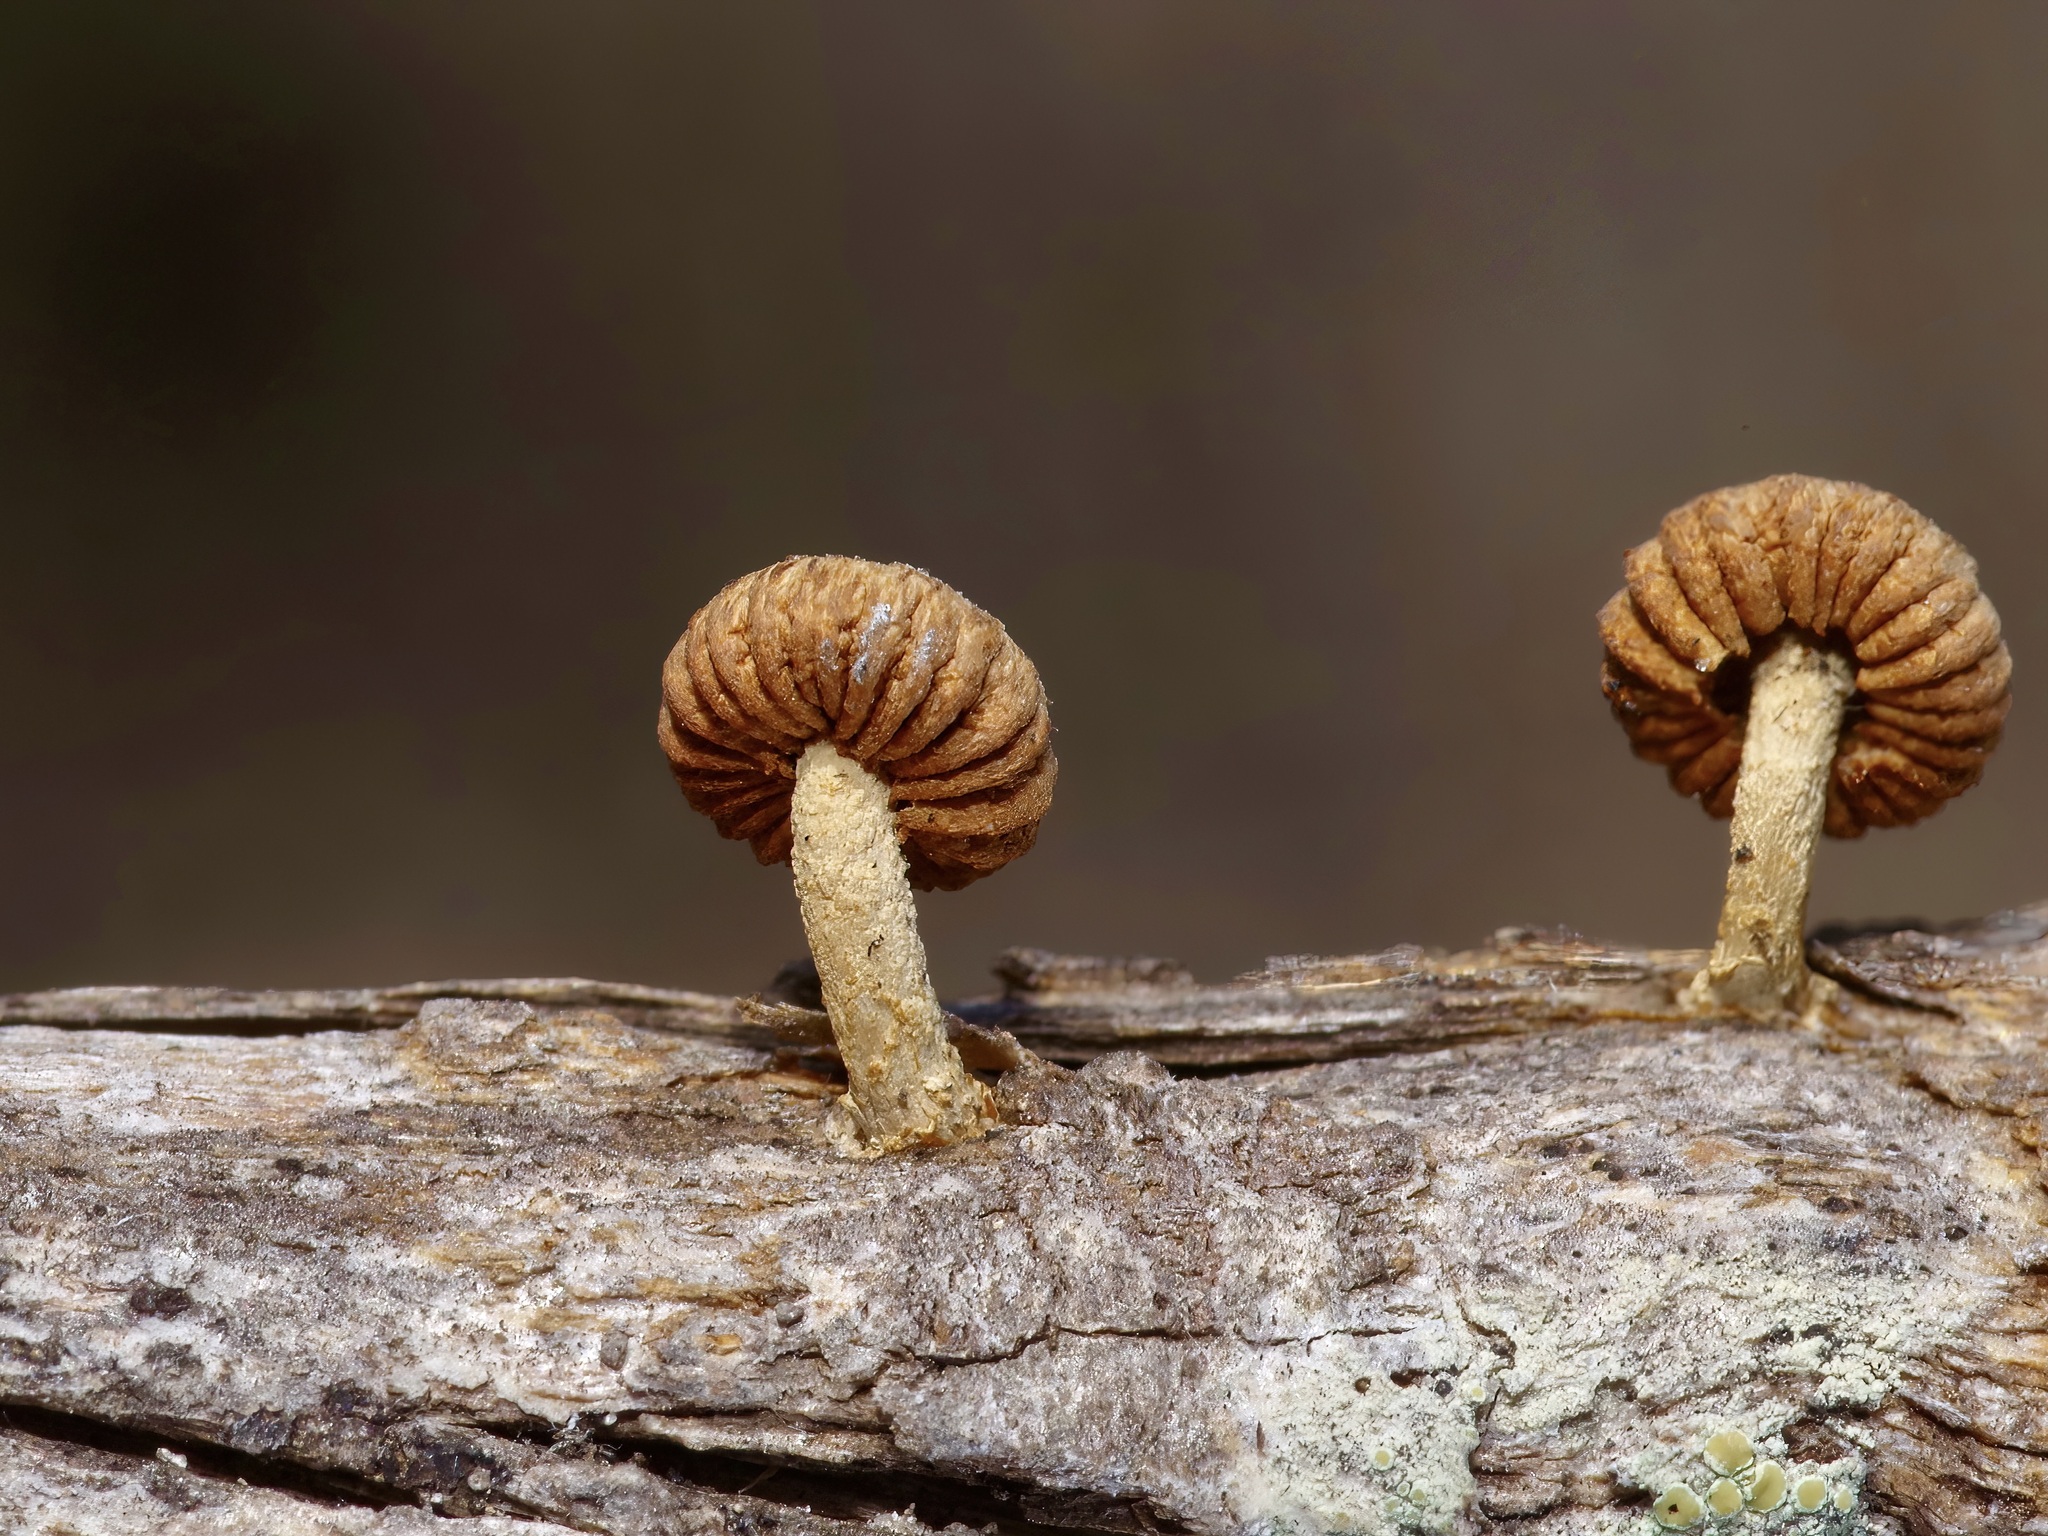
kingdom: Fungi
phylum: Basidiomycota
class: Agaricomycetes
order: Gloeophyllales
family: Gloeophyllaceae
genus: Heliocybe
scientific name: Heliocybe sulcata
